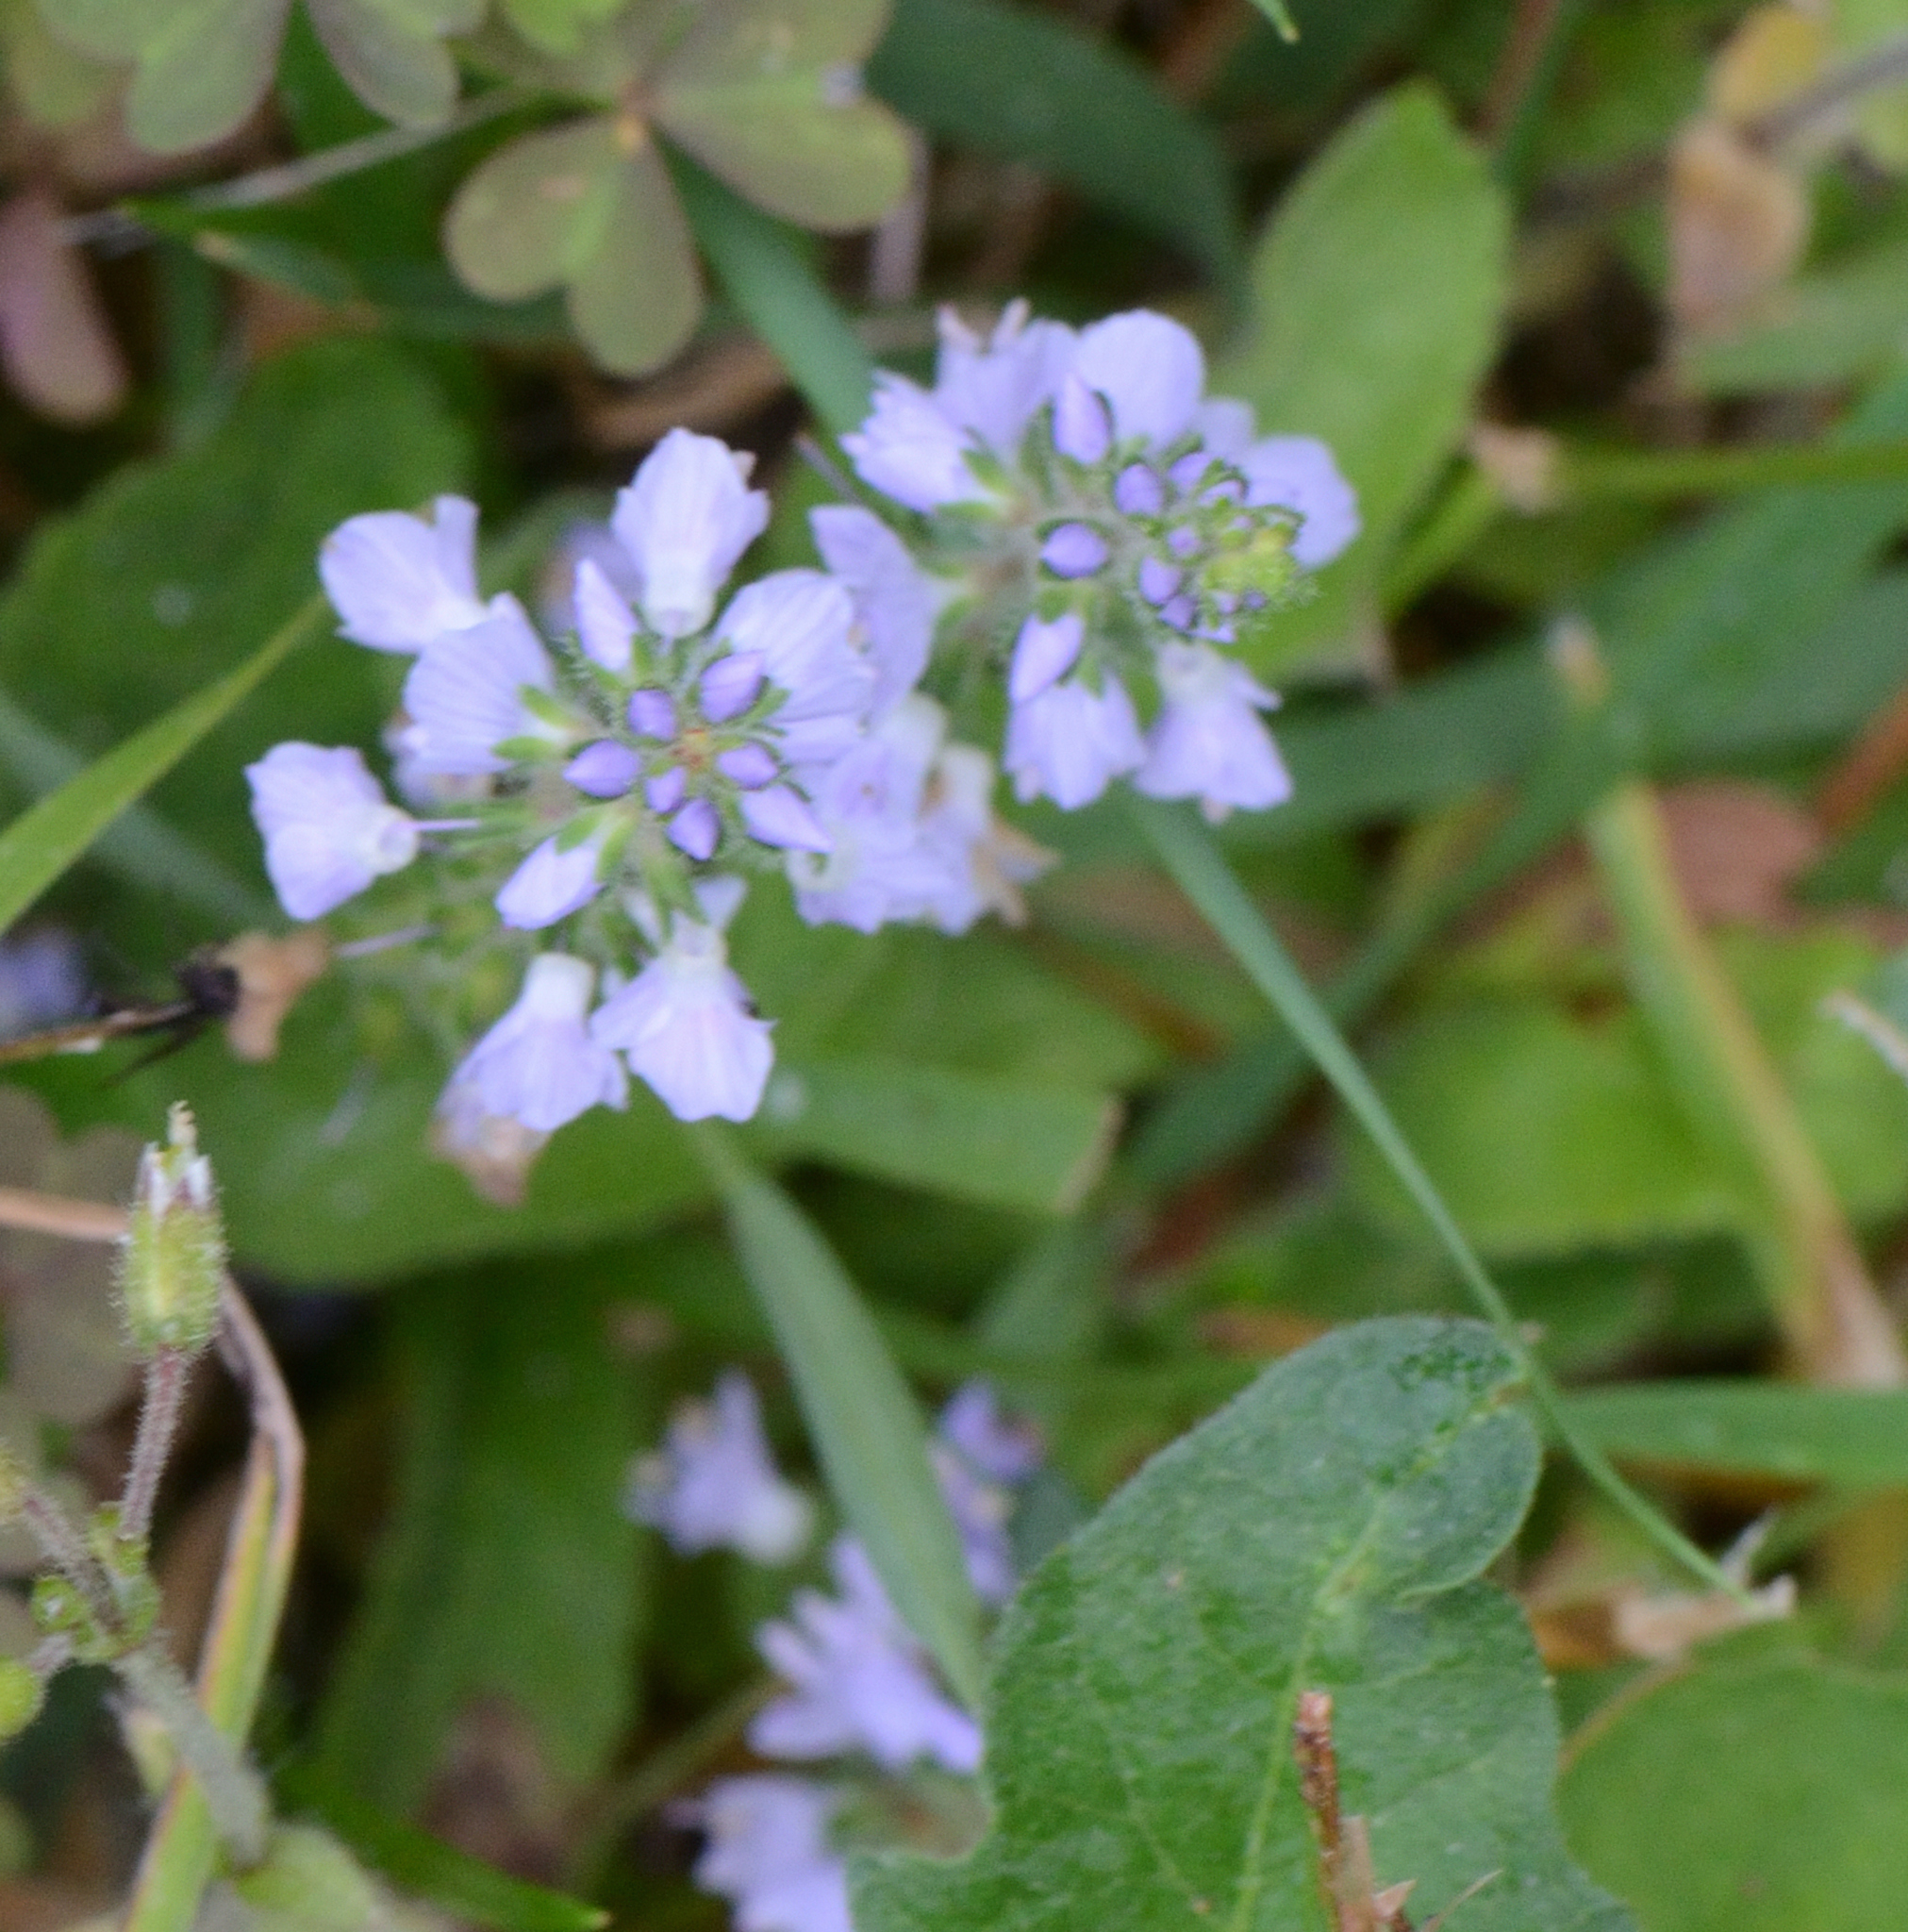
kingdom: Plantae
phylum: Tracheophyta
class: Magnoliopsida
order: Lamiales
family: Plantaginaceae
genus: Veronica
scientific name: Veronica officinalis
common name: Common speedwell
